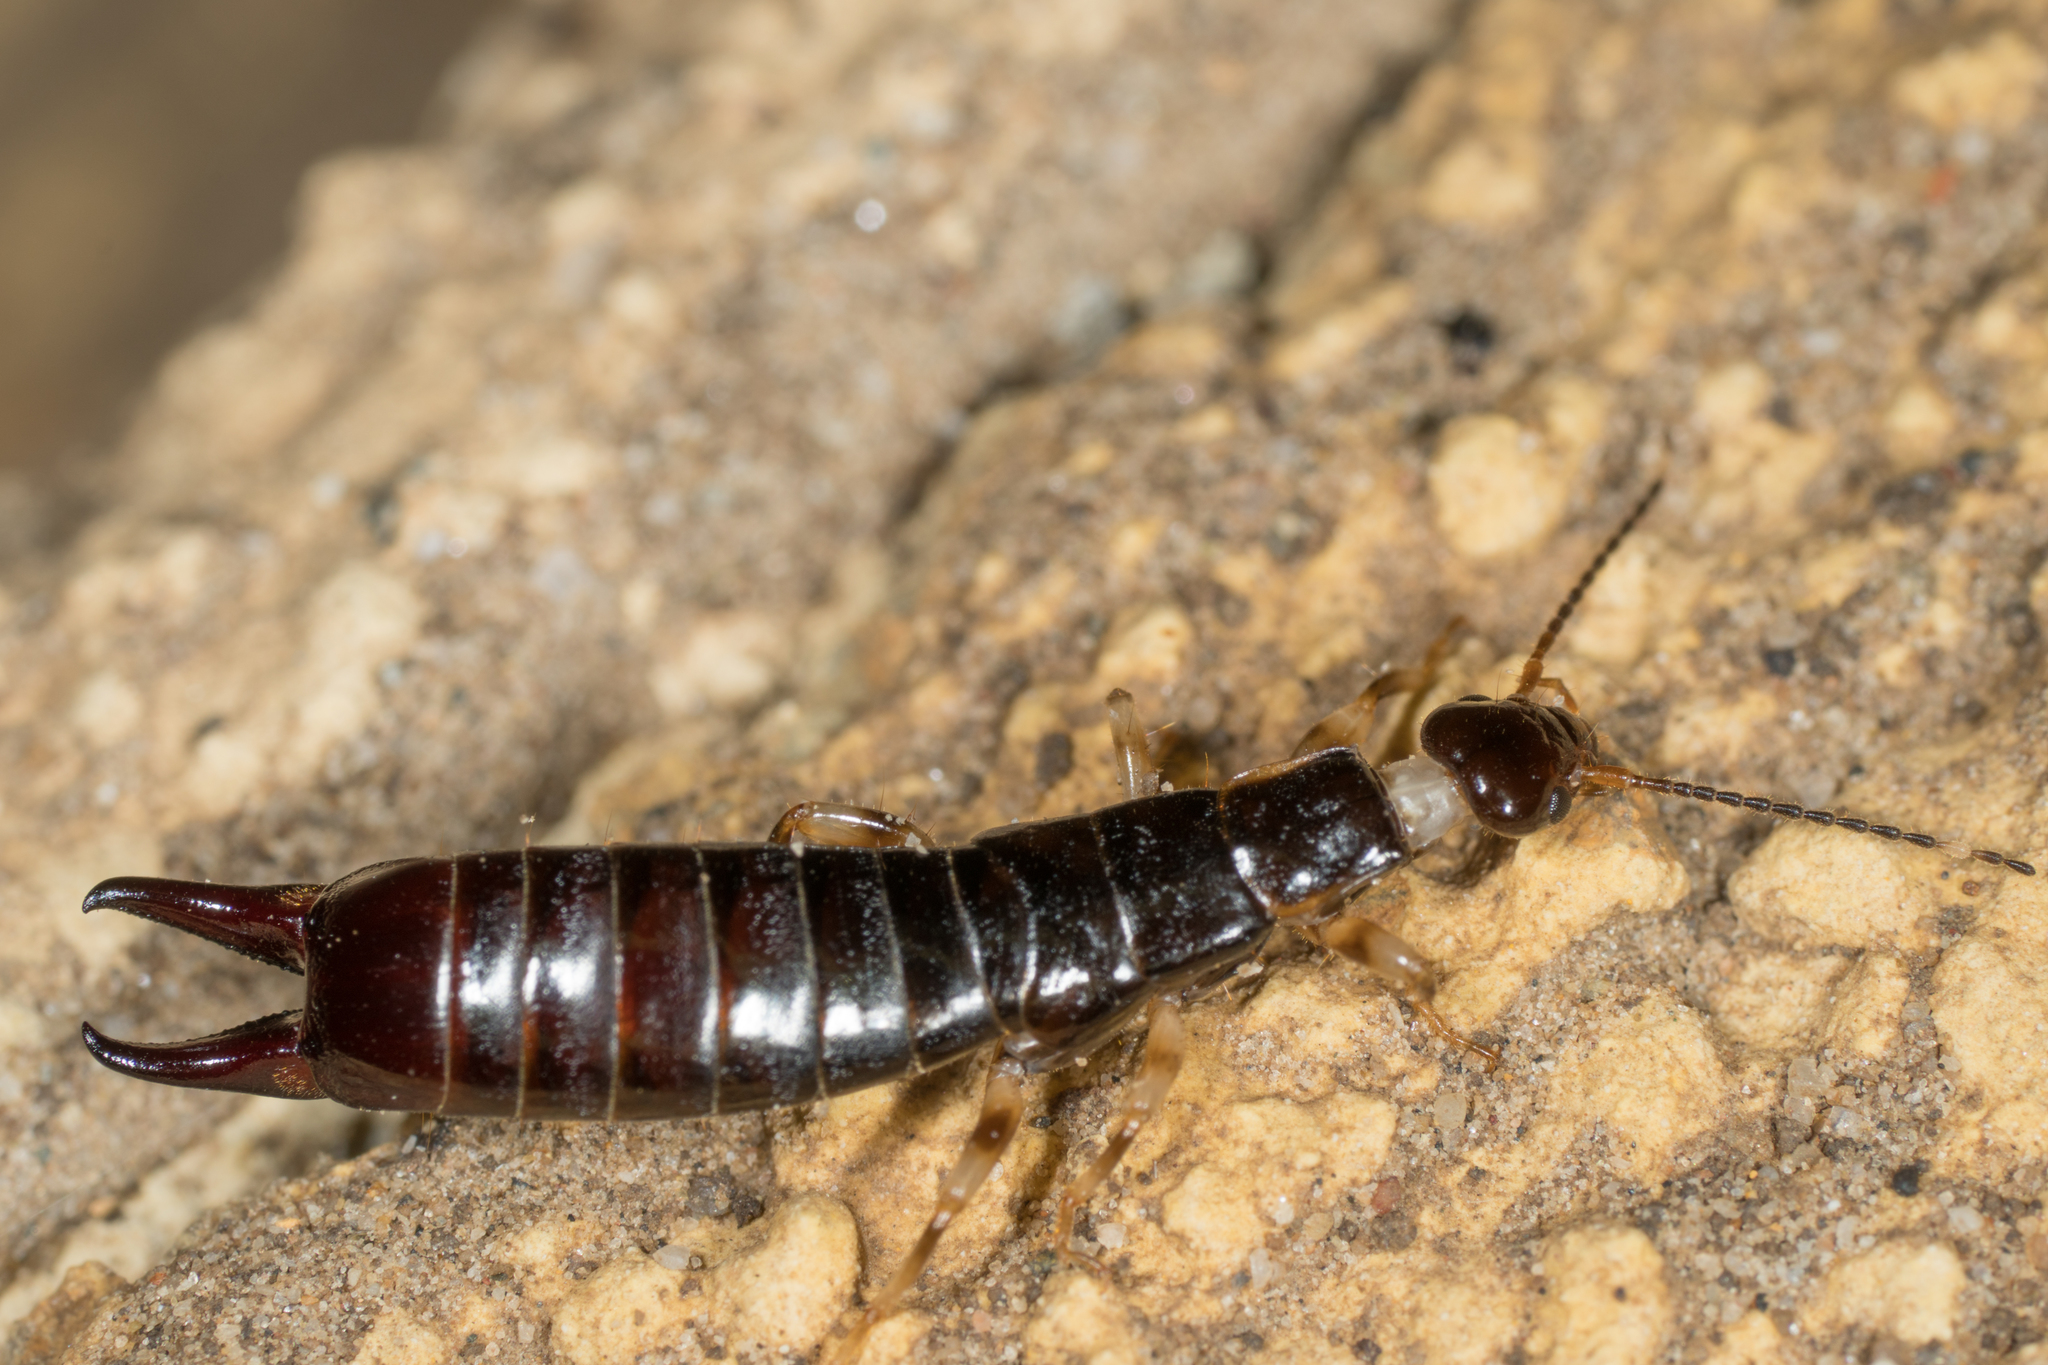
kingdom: Animalia
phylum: Arthropoda
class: Insecta
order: Dermaptera
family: Anisolabididae
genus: Euborellia
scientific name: Euborellia annulipes
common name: Ringlegged earwig
